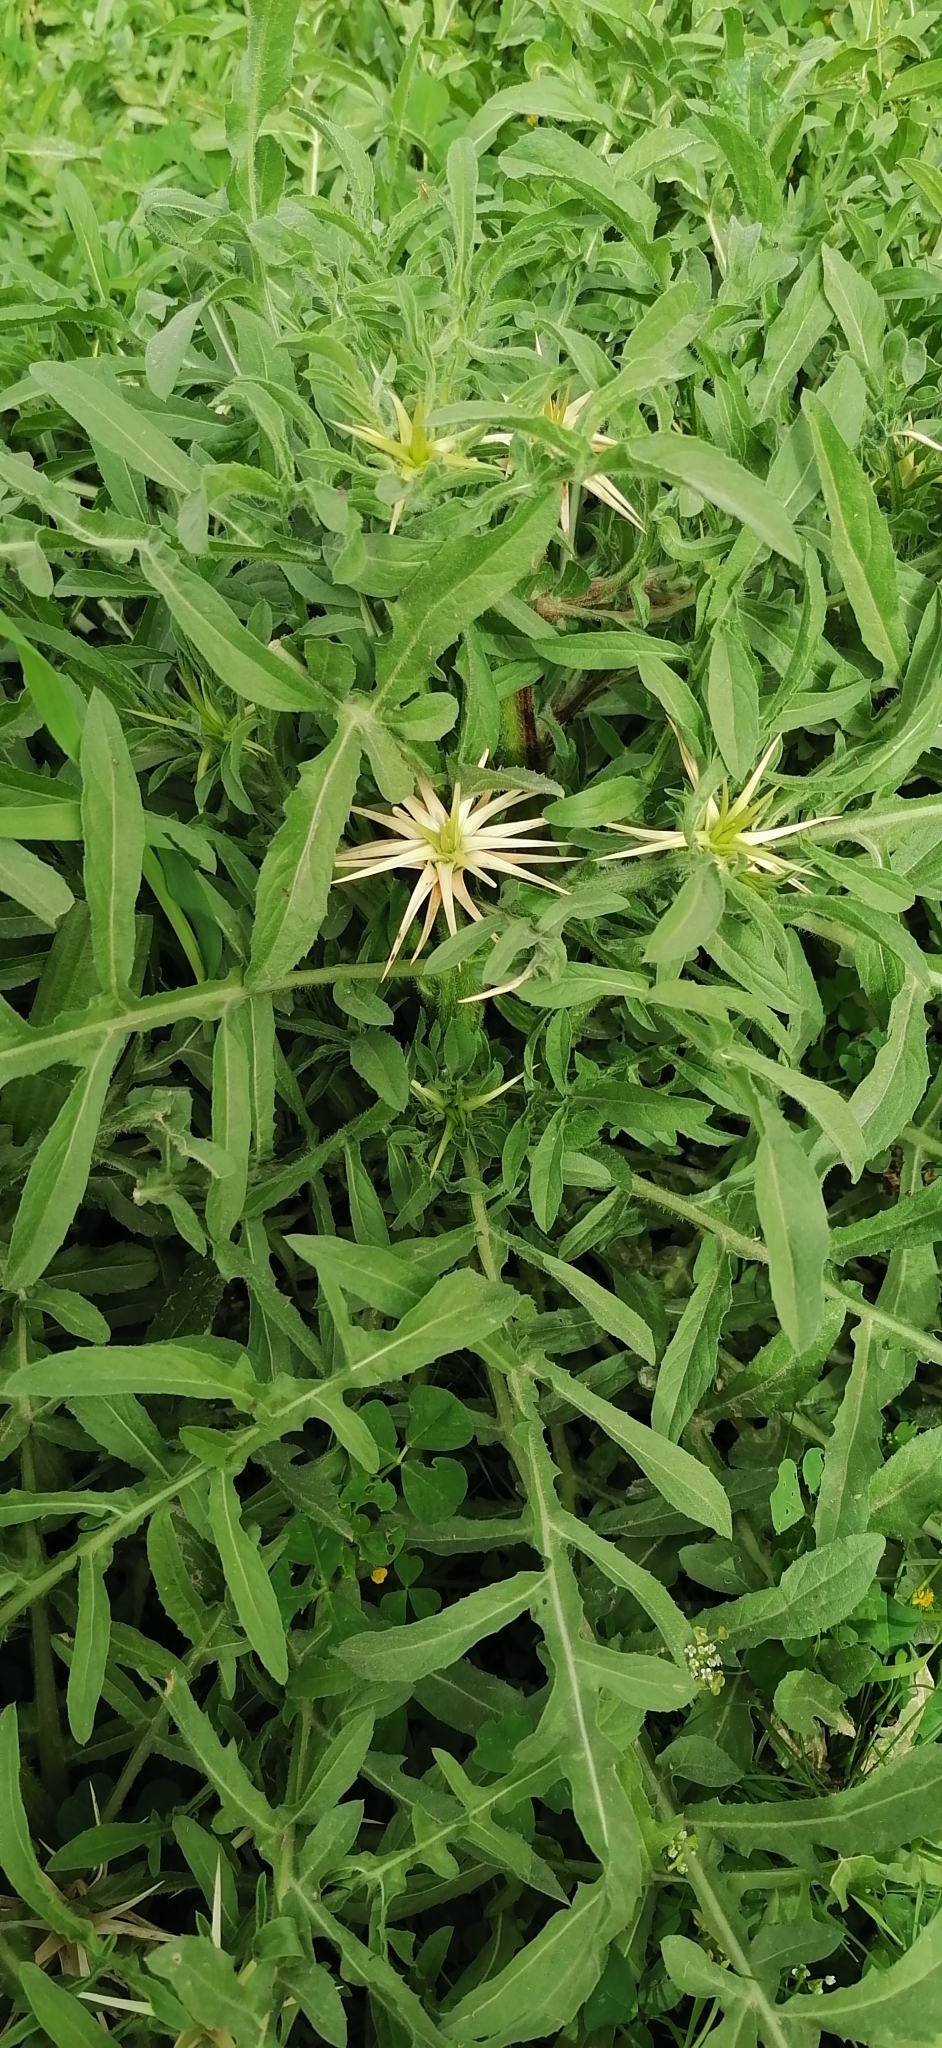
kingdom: Plantae
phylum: Tracheophyta
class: Magnoliopsida
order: Asterales
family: Asteraceae
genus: Centaurea
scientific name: Centaurea iberica
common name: Iberian knapweed
